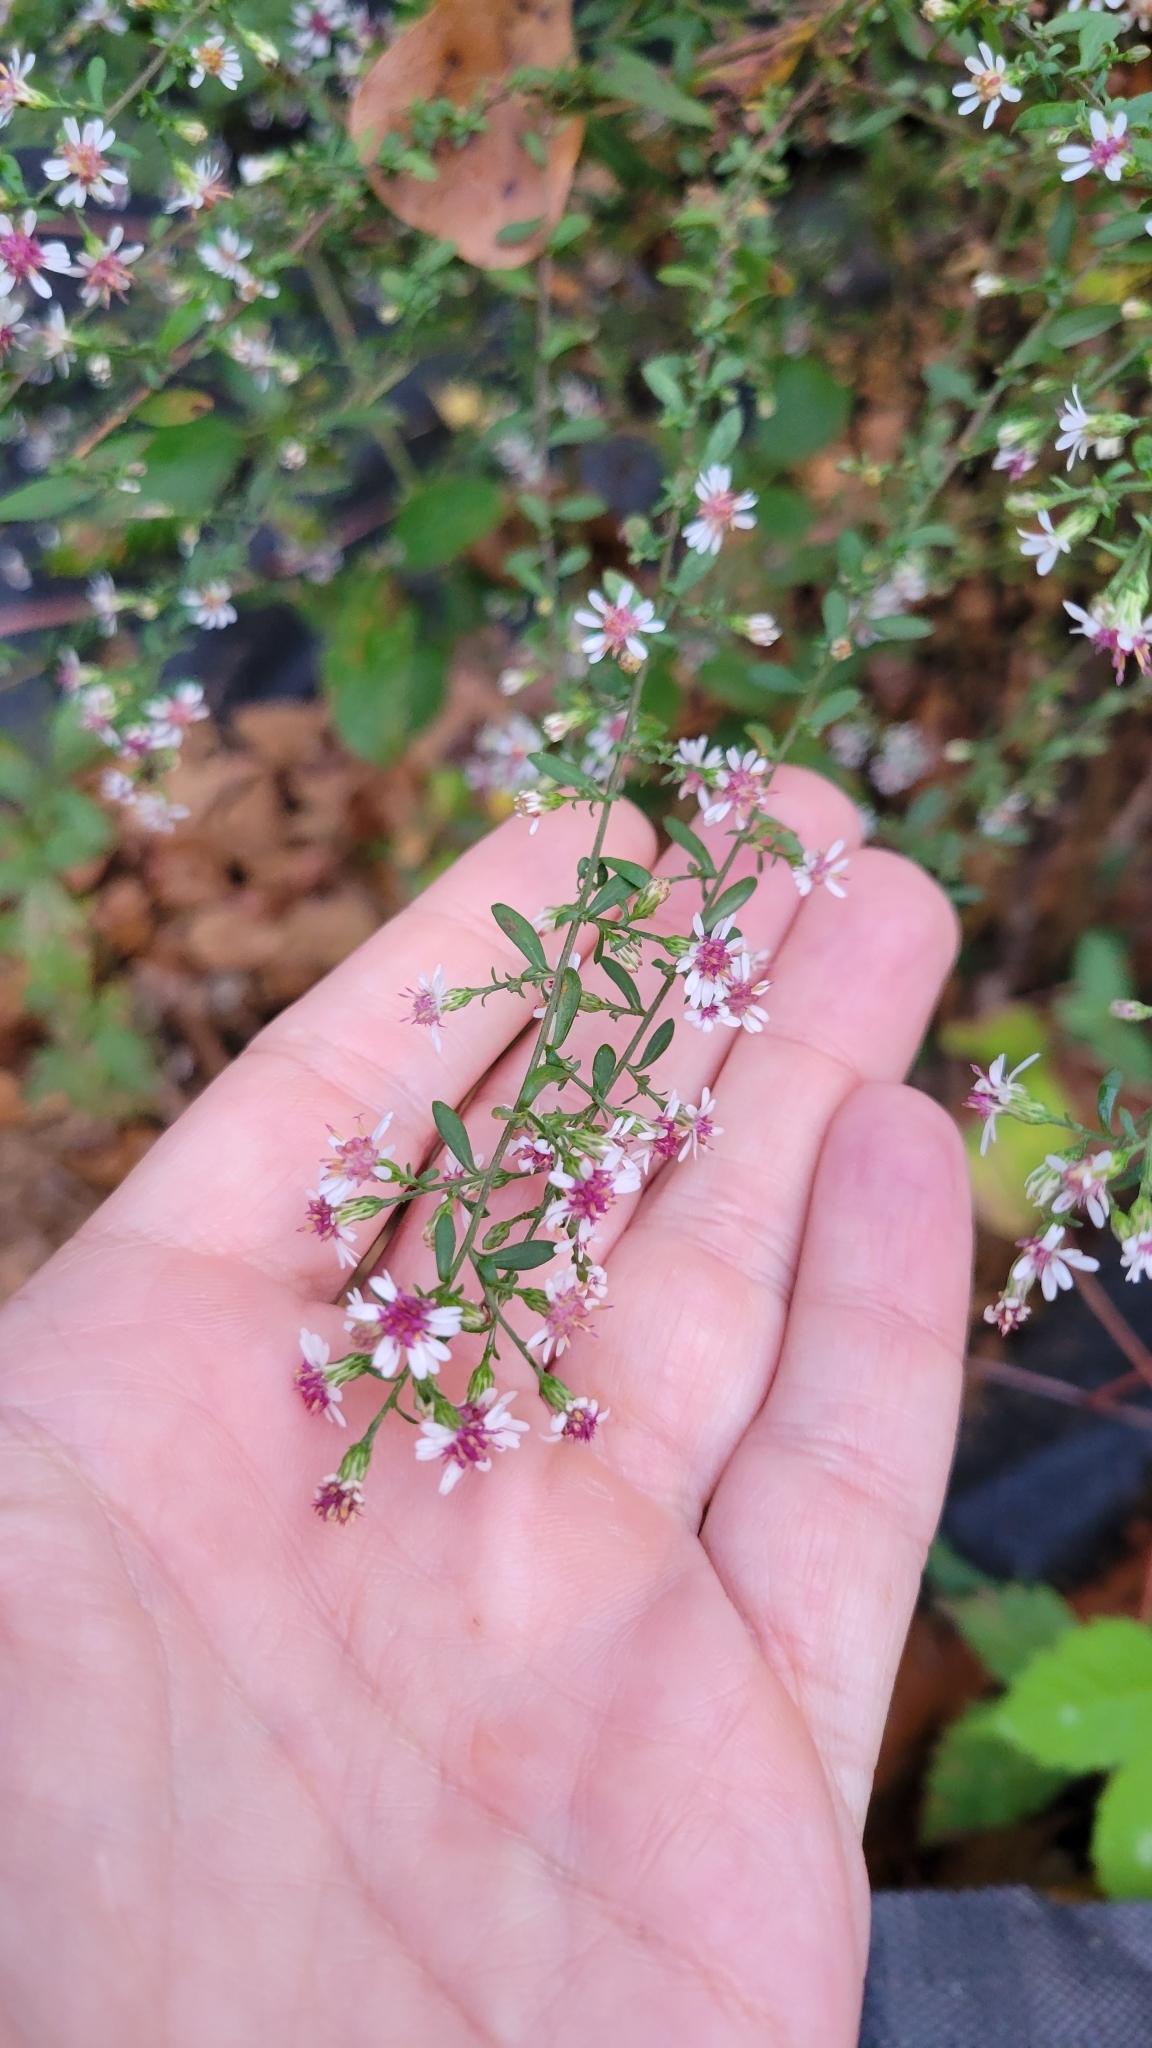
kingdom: Plantae
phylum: Tracheophyta
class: Magnoliopsida
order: Asterales
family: Asteraceae
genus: Symphyotrichum
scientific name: Symphyotrichum lateriflorum
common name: Calico aster
